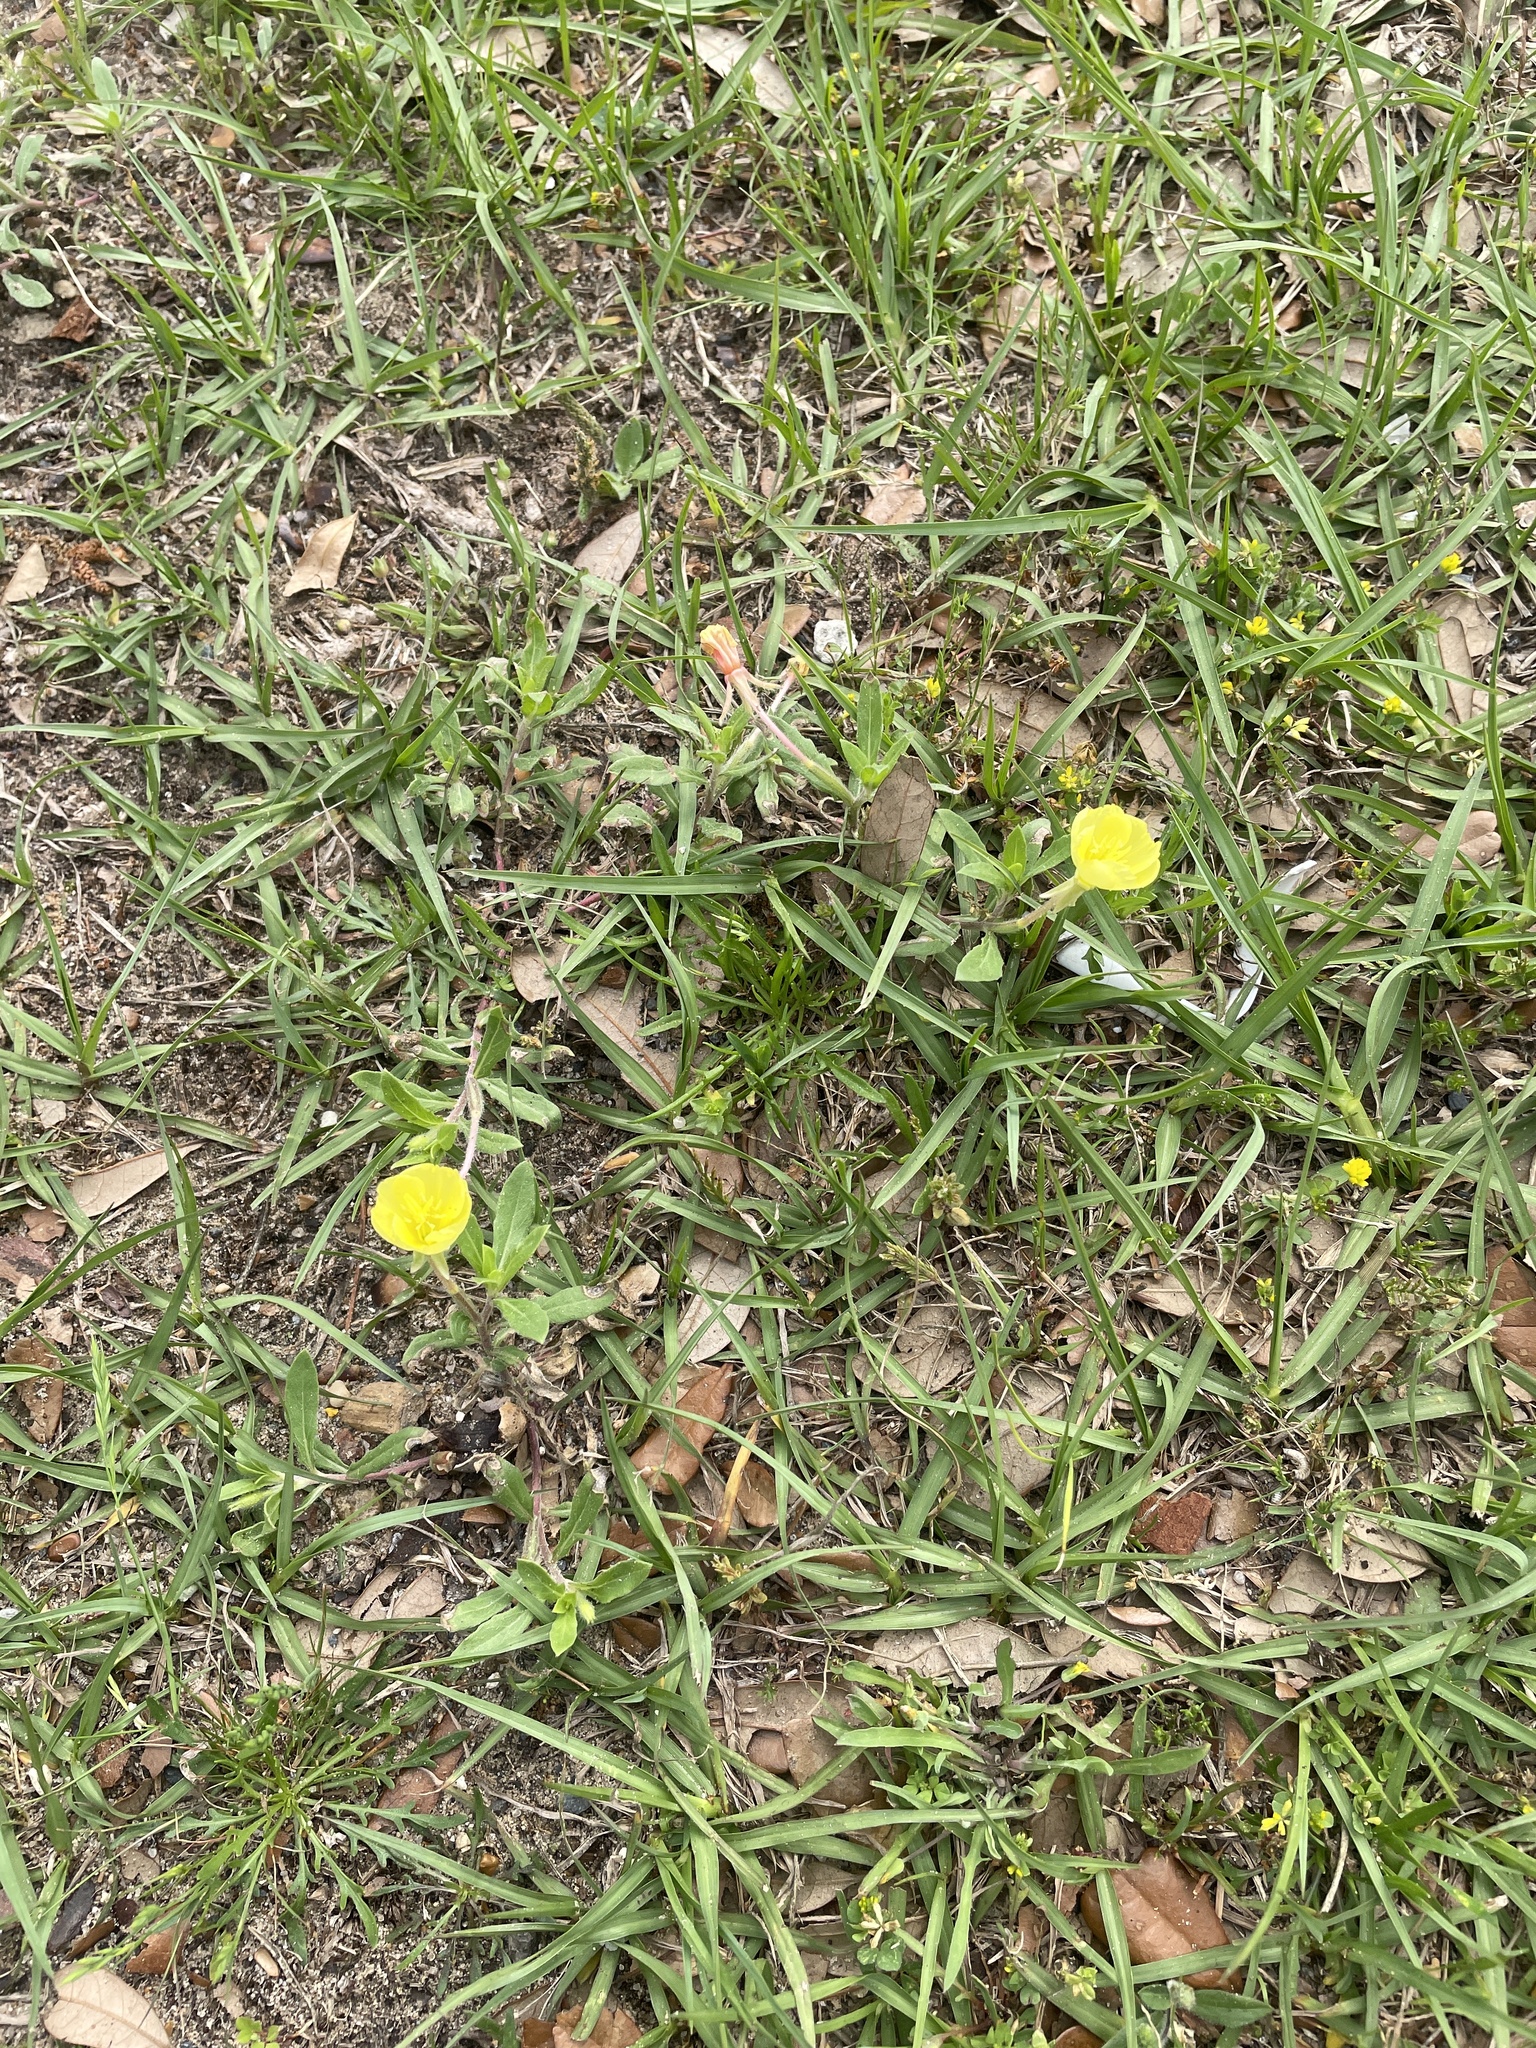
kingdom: Plantae
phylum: Tracheophyta
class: Magnoliopsida
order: Myrtales
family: Onagraceae
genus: Oenothera
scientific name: Oenothera laciniata
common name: Cut-leaved evening-primrose
